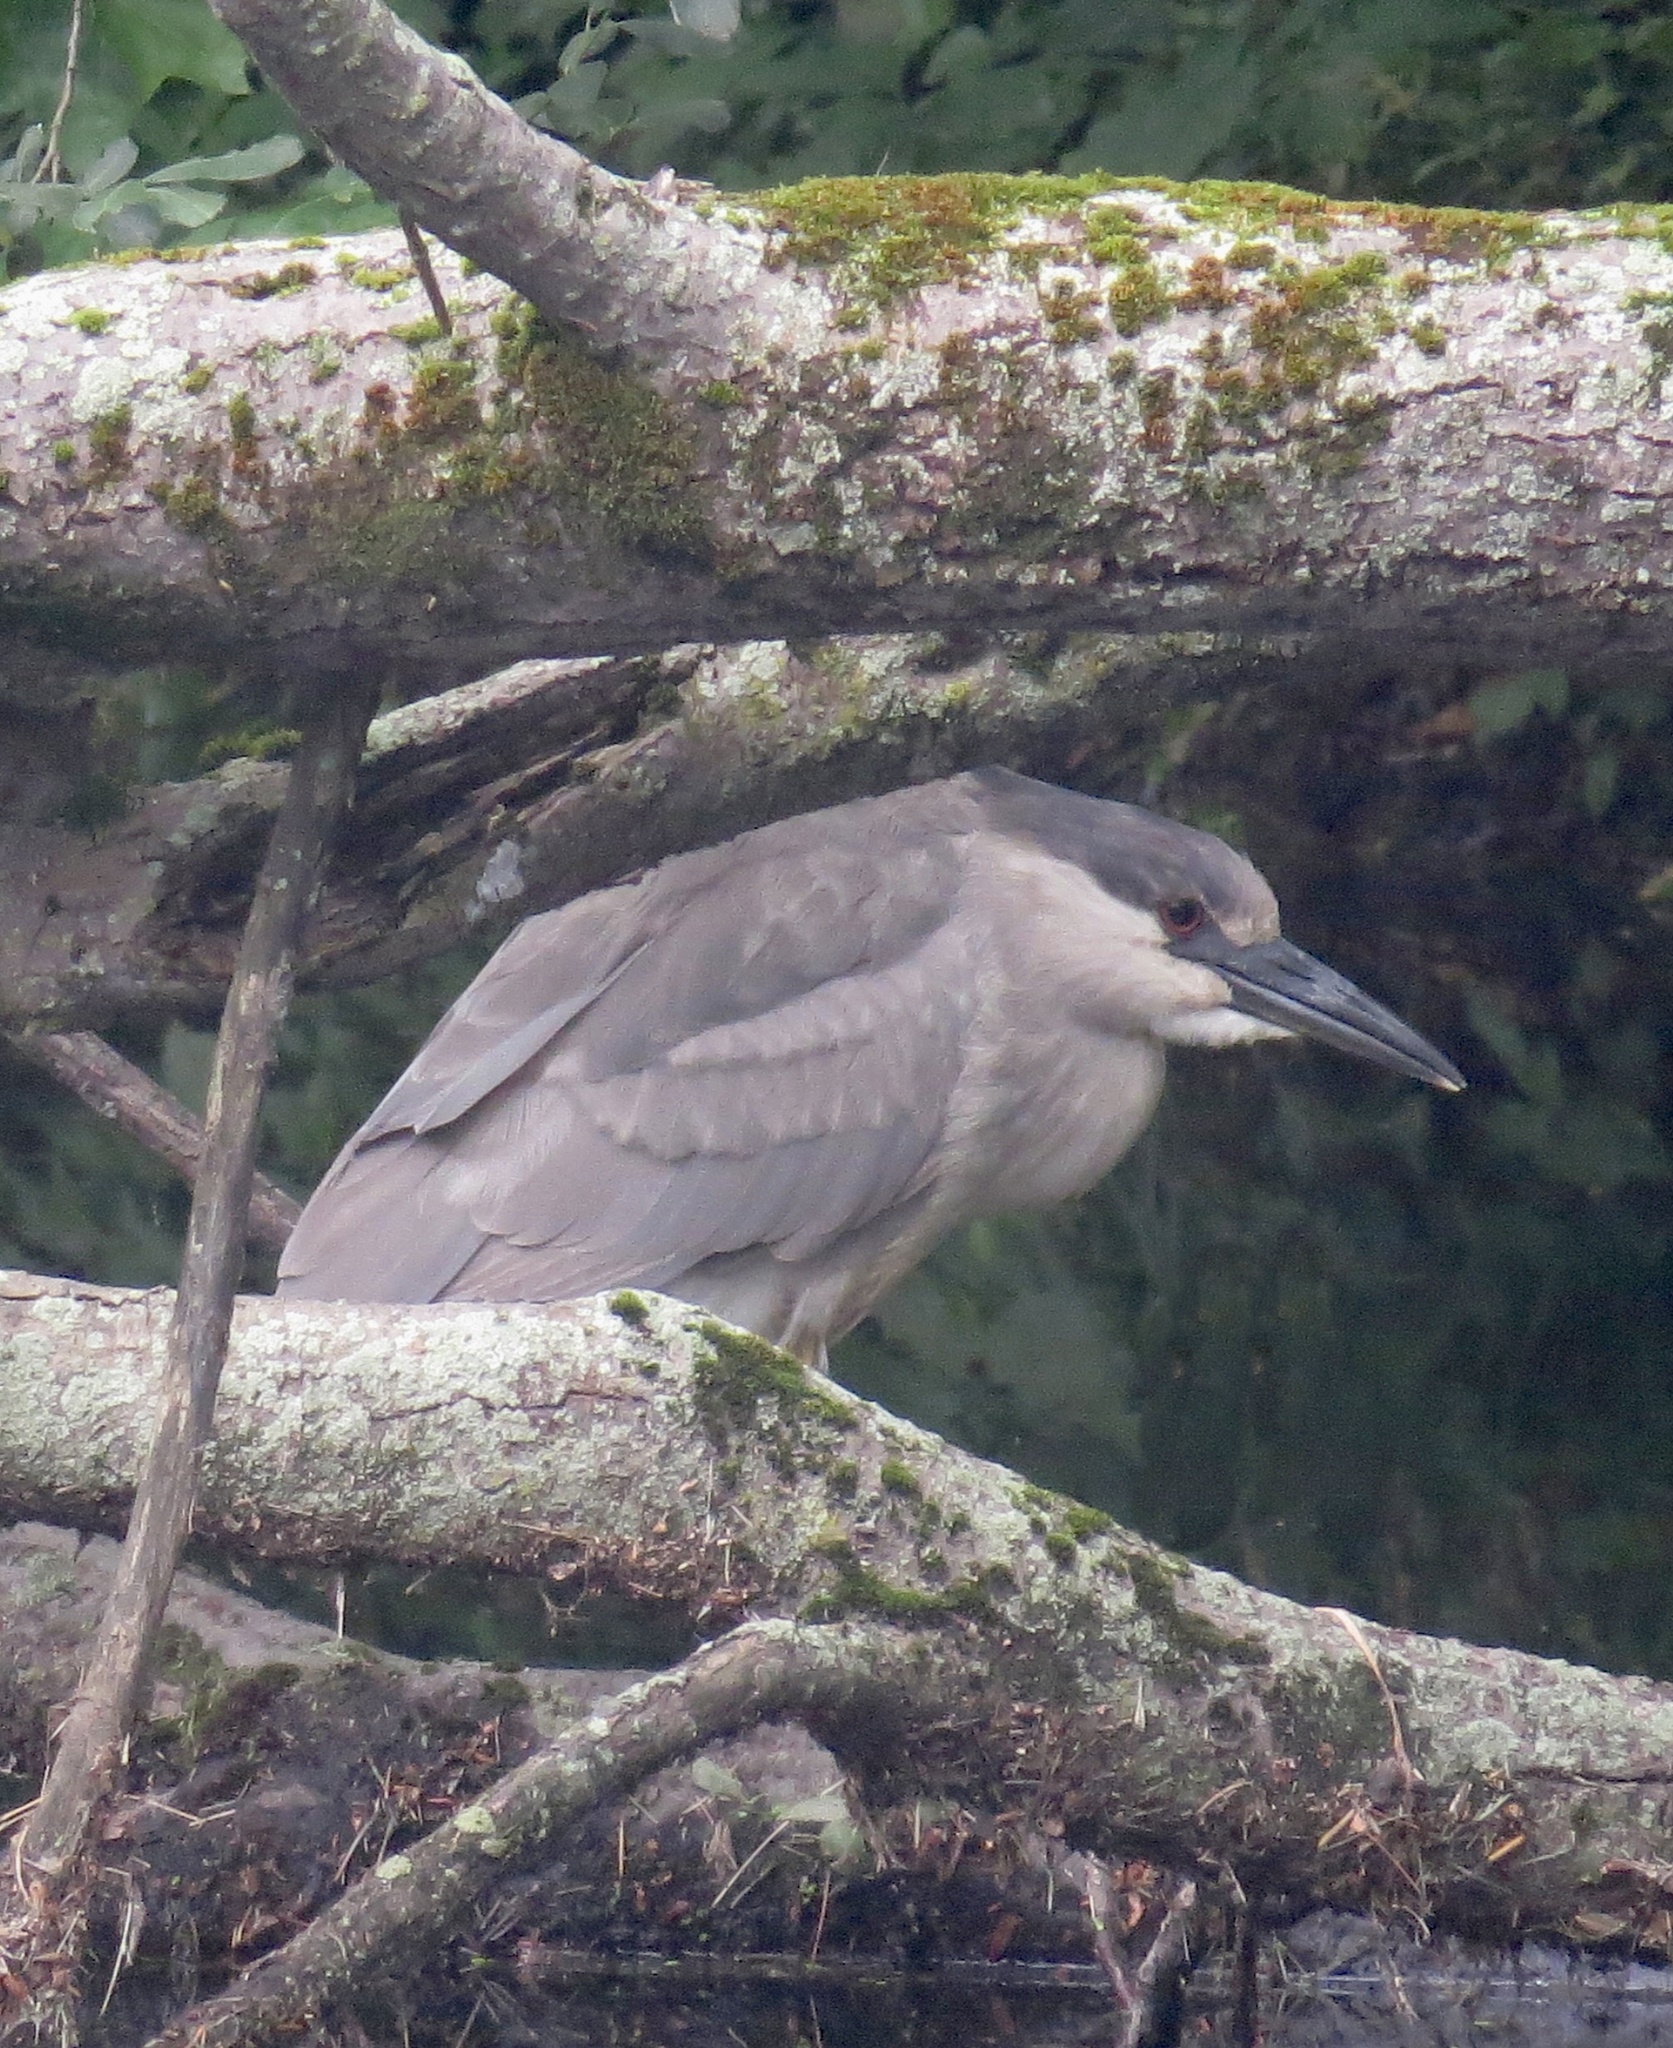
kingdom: Animalia
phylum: Chordata
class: Aves
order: Pelecaniformes
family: Ardeidae
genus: Nycticorax
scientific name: Nycticorax nycticorax
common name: Black-crowned night heron
